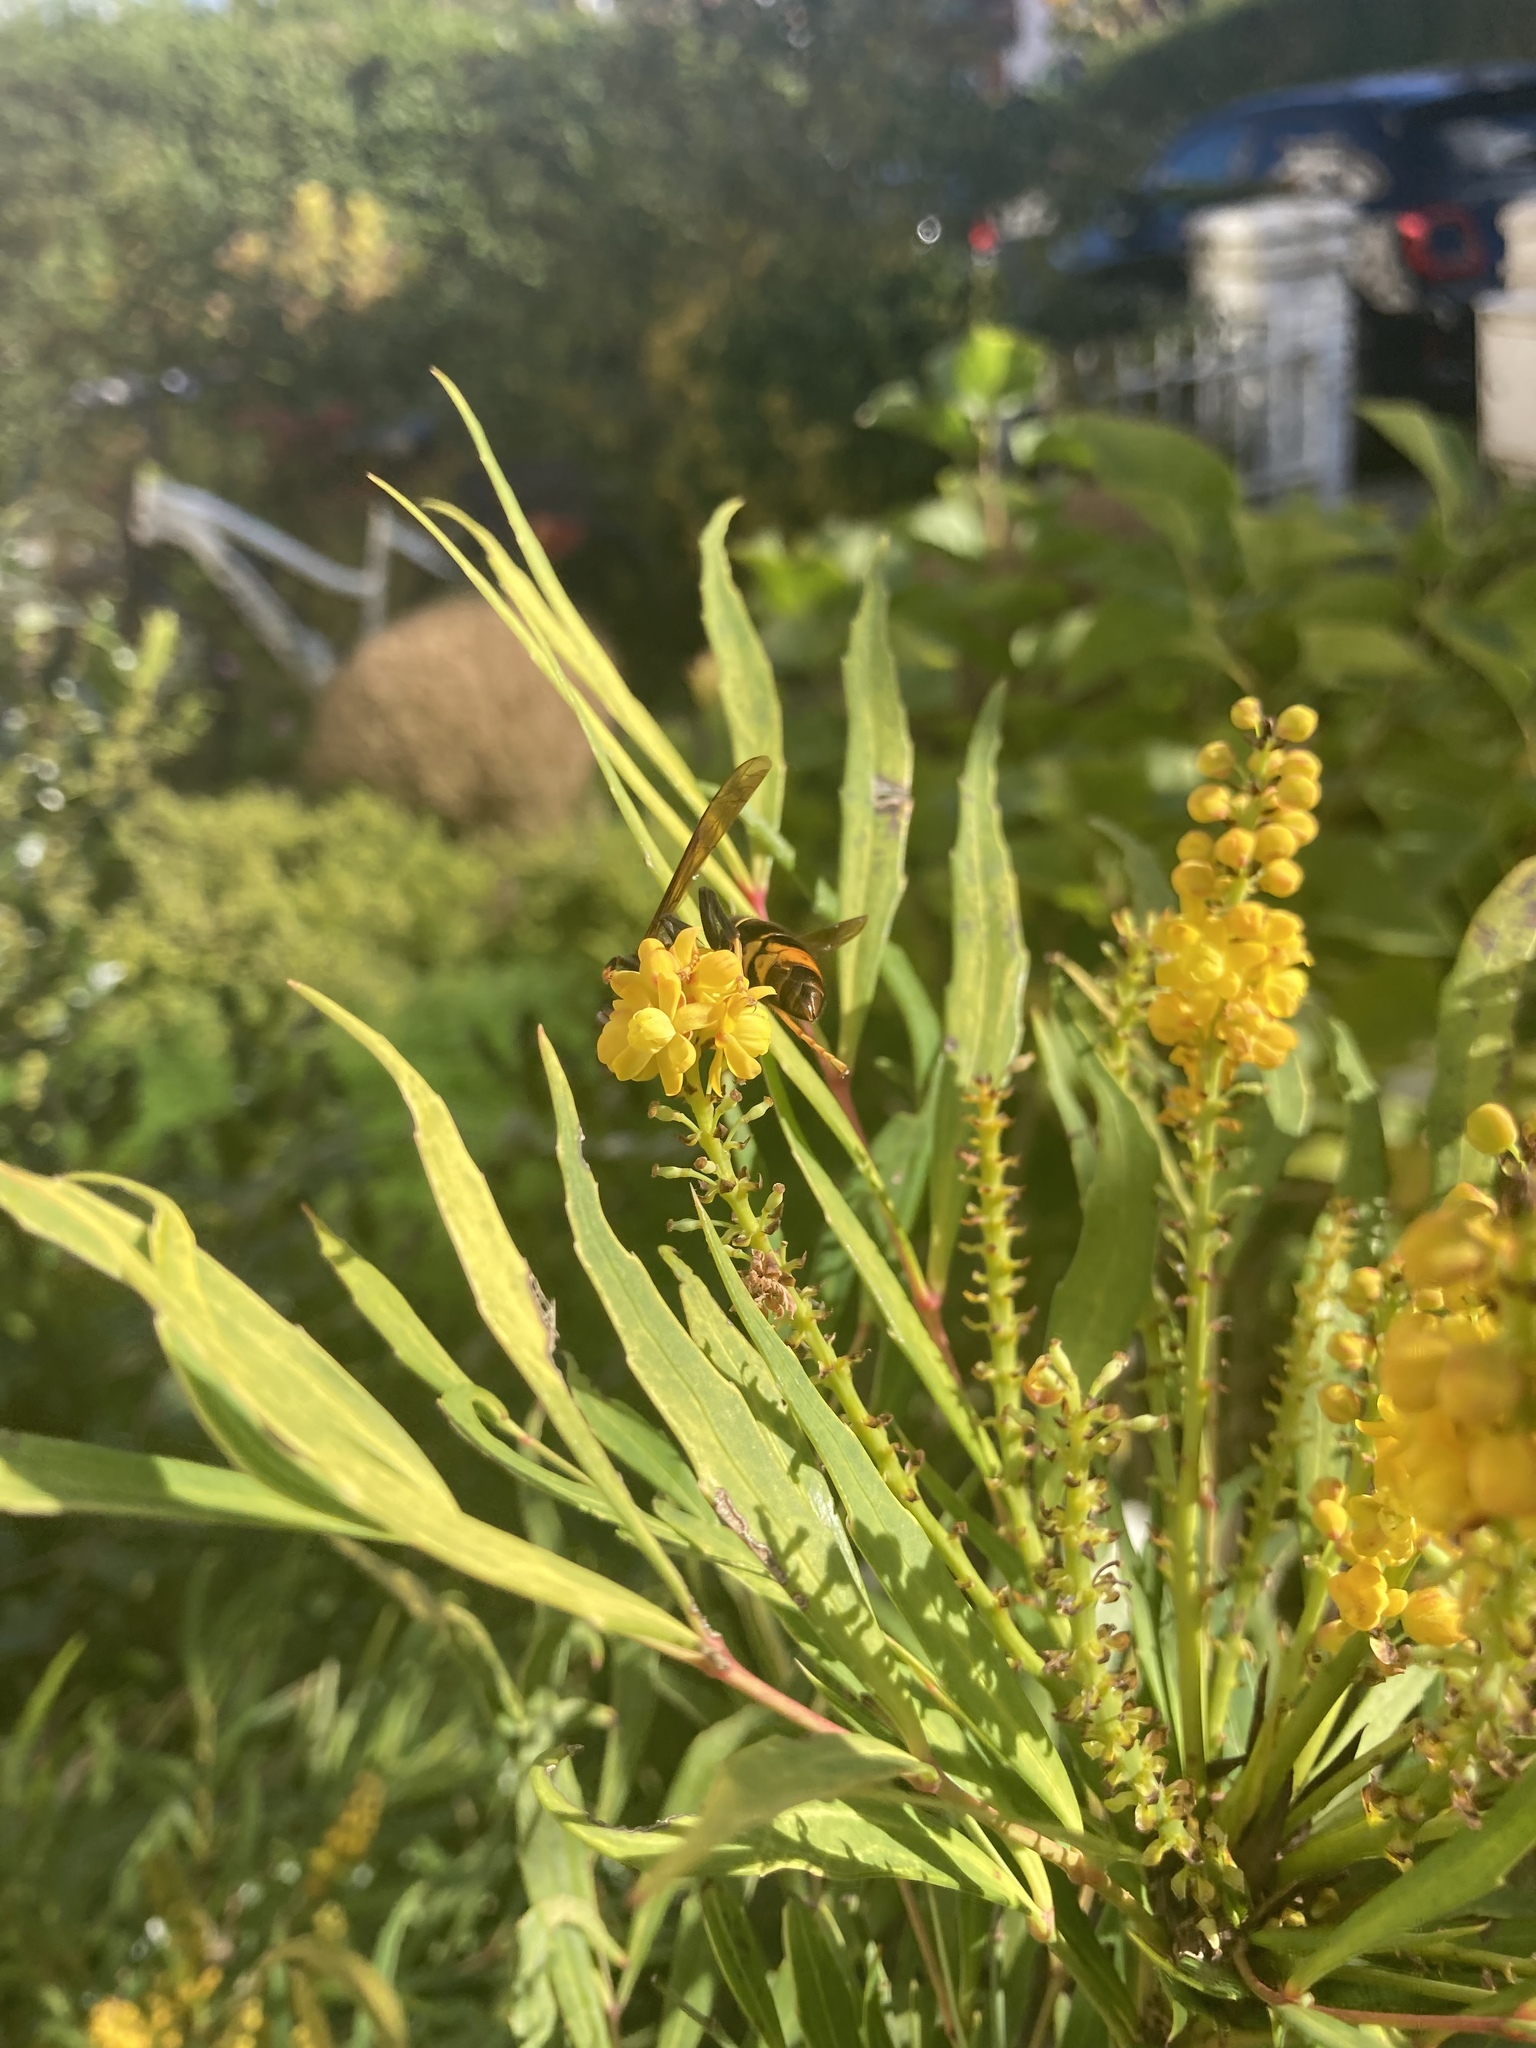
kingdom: Animalia
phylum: Arthropoda
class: Insecta
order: Hymenoptera
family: Vespidae
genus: Vespa
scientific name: Vespa velutina
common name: Asian hornet
